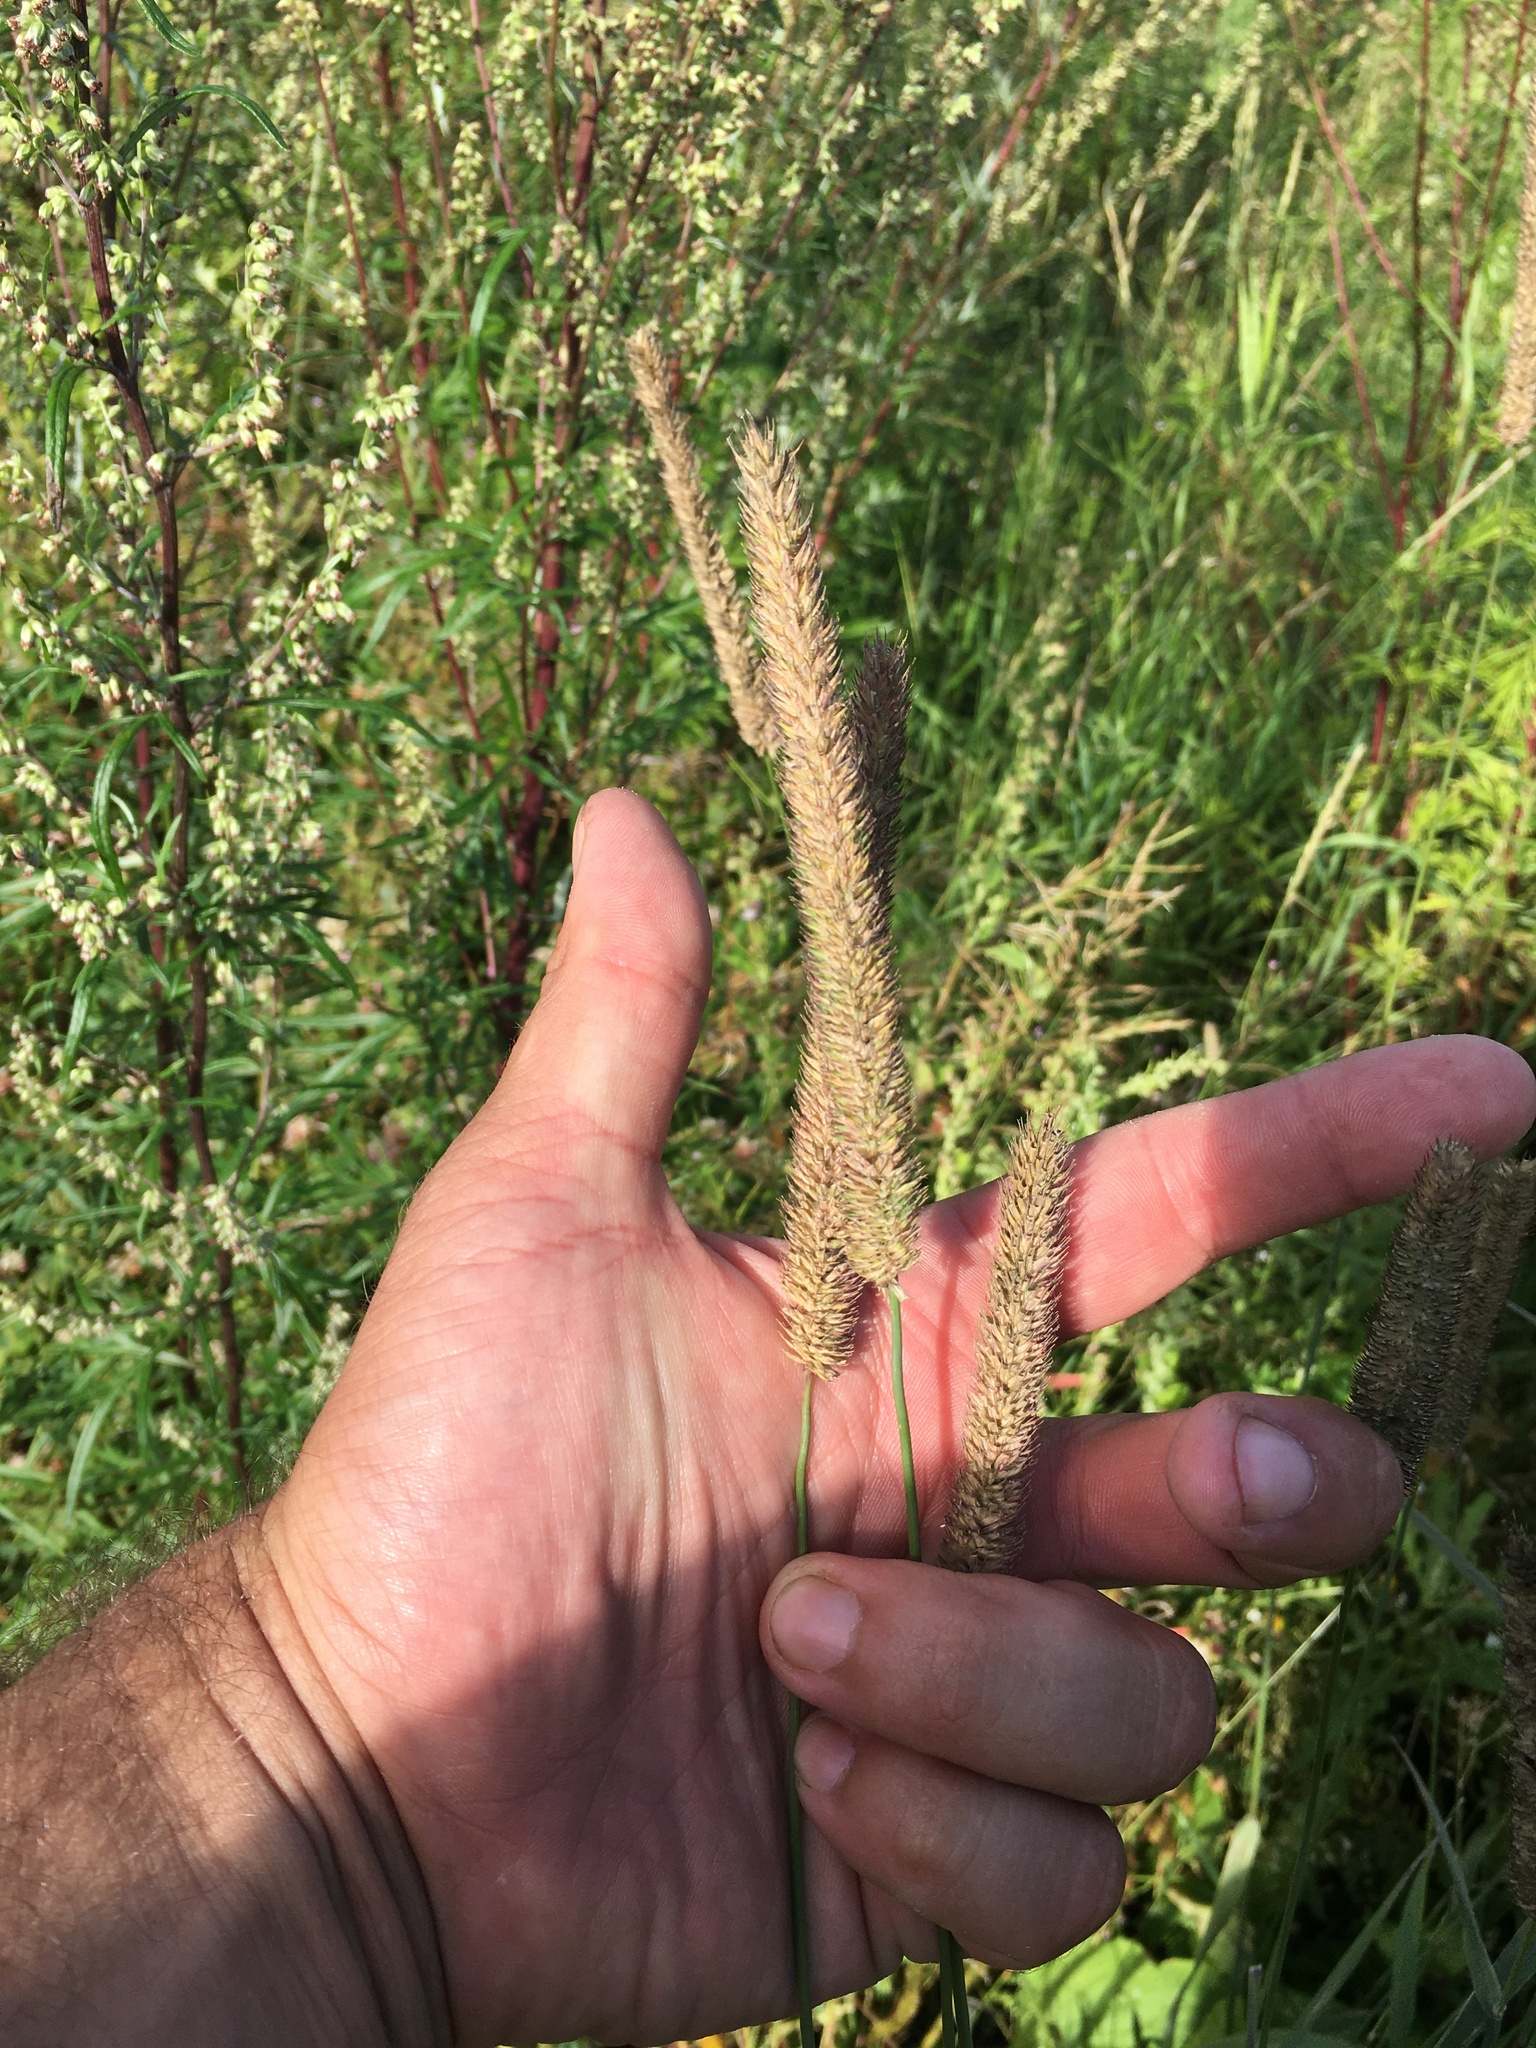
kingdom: Plantae
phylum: Tracheophyta
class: Liliopsida
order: Poales
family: Poaceae
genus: Phleum
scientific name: Phleum pratense
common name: Timothy grass
